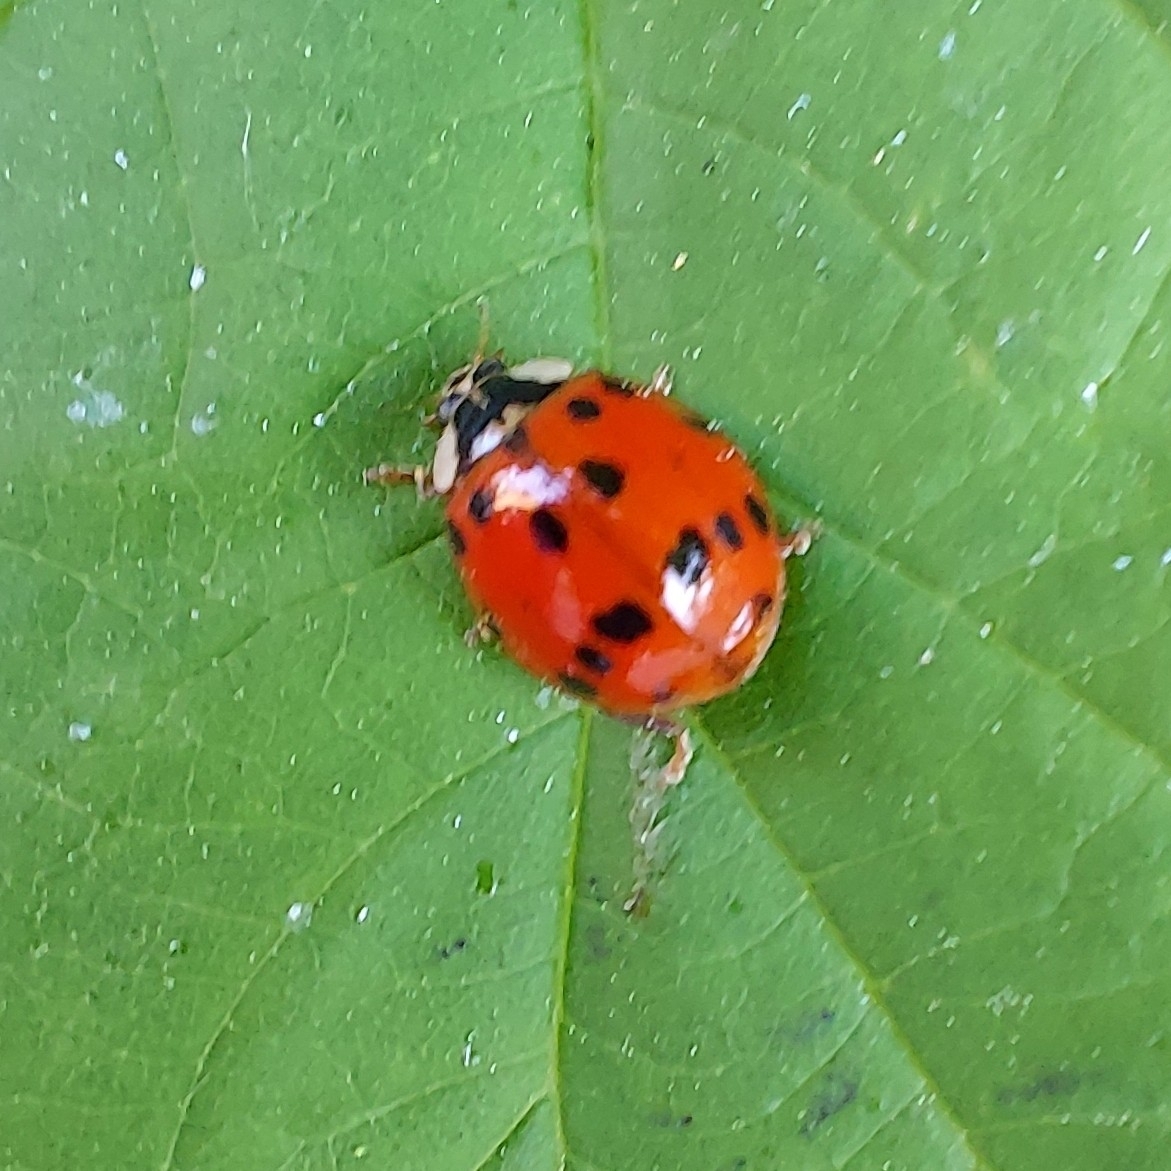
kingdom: Animalia
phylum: Arthropoda
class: Insecta
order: Coleoptera
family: Coccinellidae
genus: Harmonia
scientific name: Harmonia axyridis
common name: Harlequin ladybird
